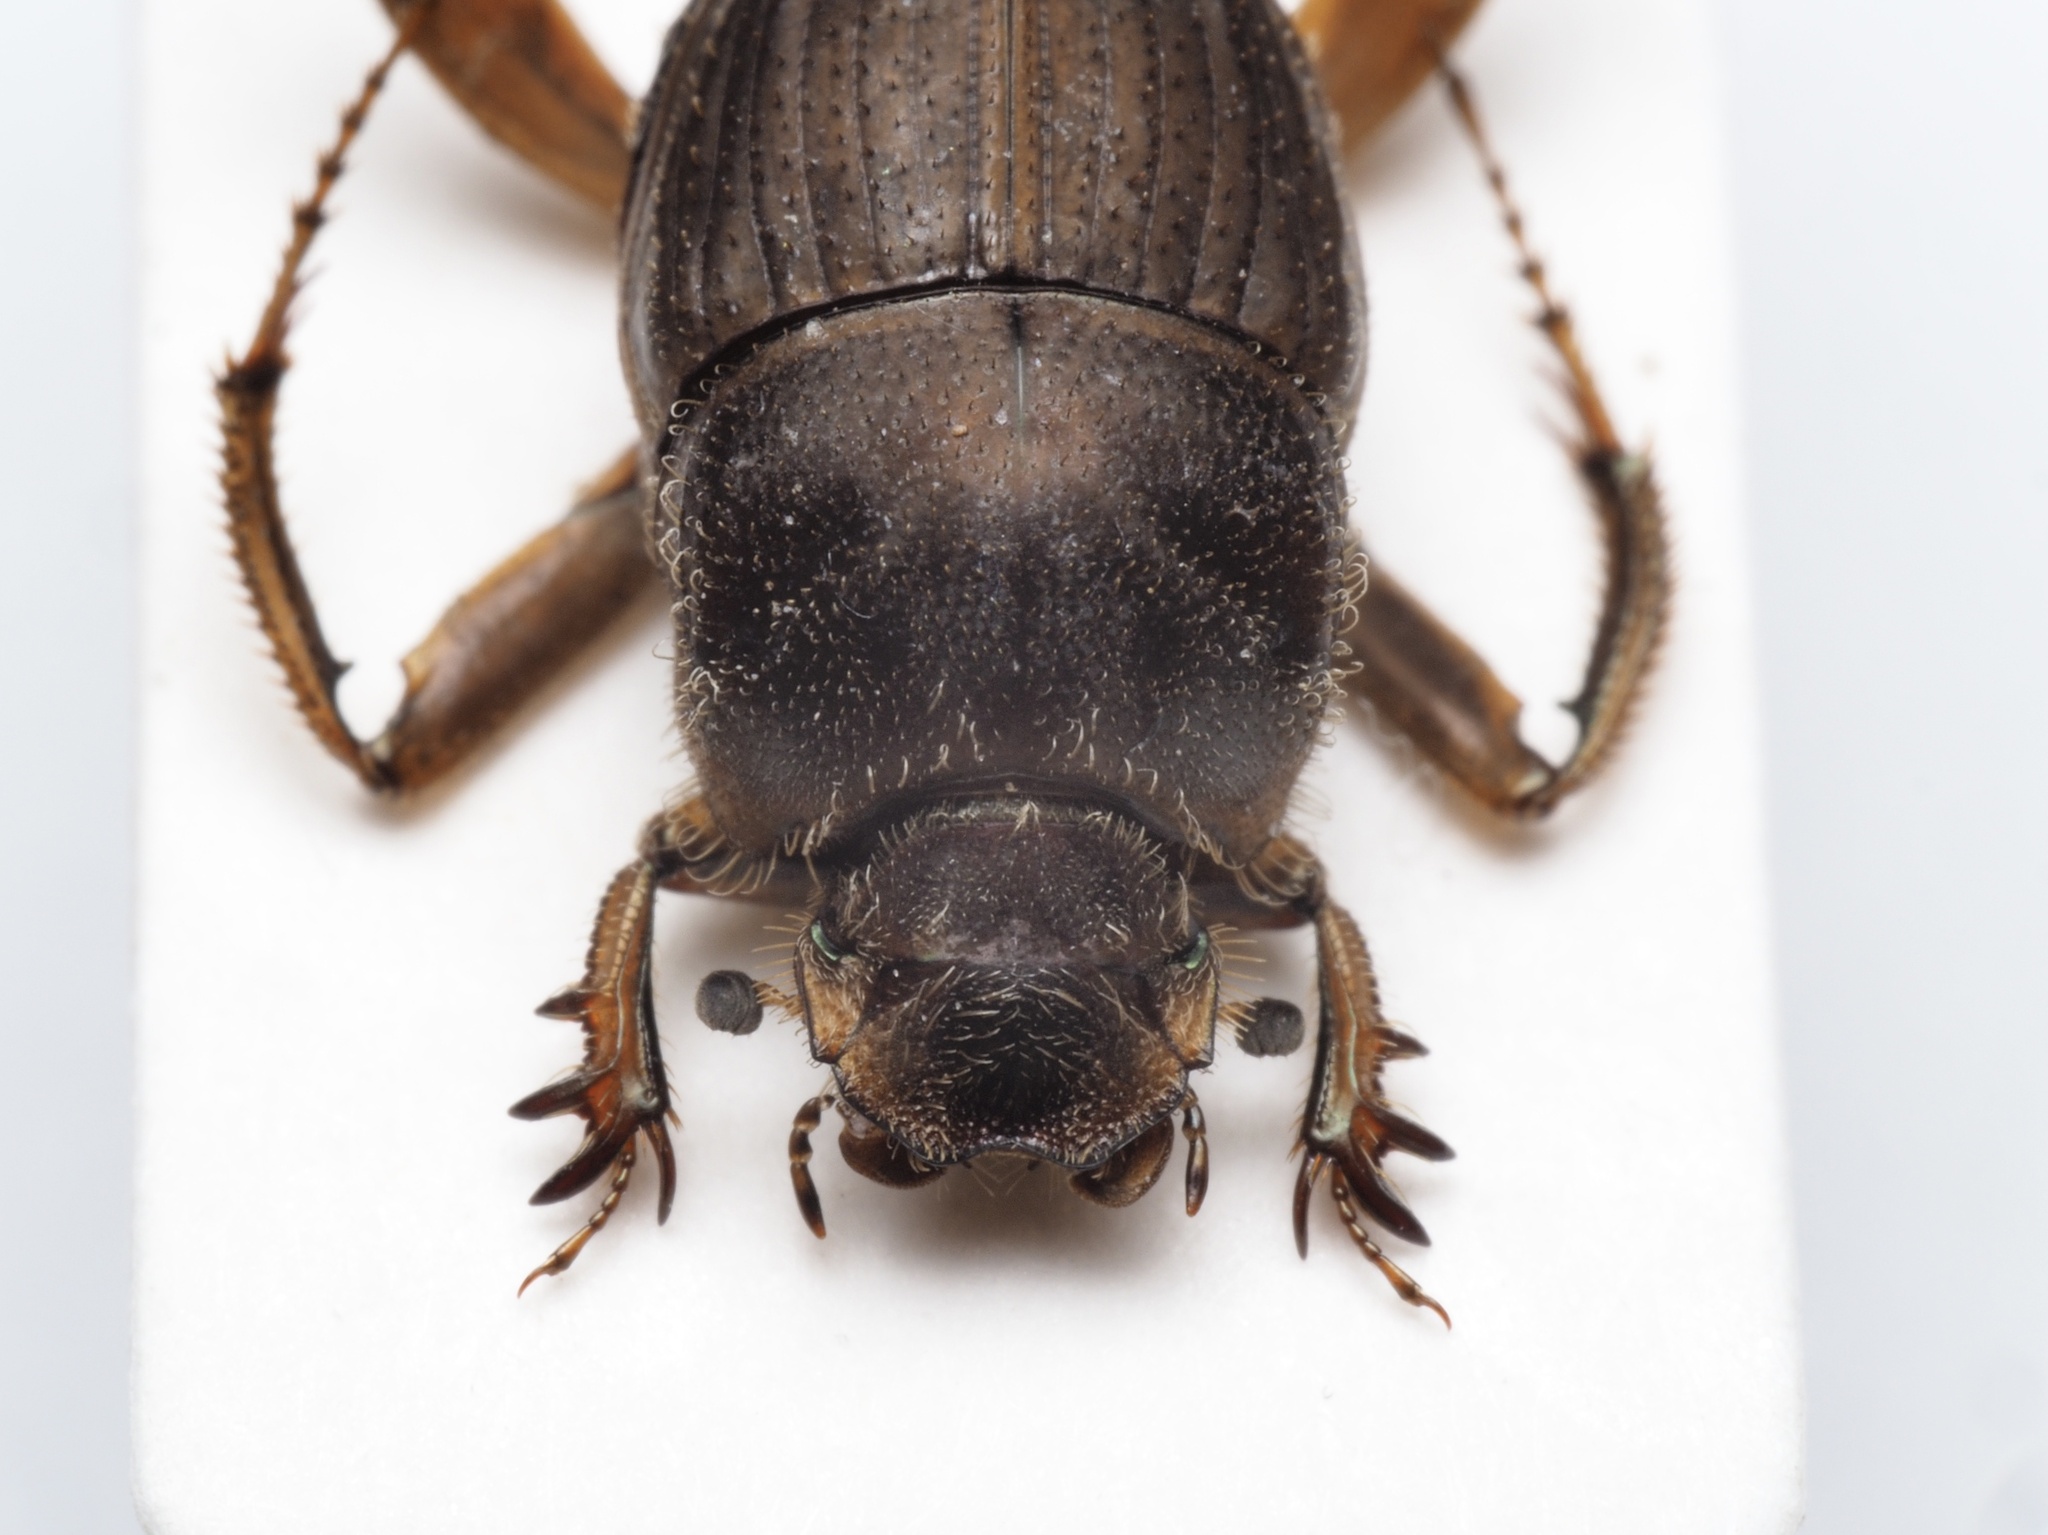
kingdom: Animalia
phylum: Arthropoda
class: Insecta
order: Coleoptera
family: Scarabaeidae
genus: Sisyphus
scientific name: Sisyphus rubrus
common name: Brown dungball roller
